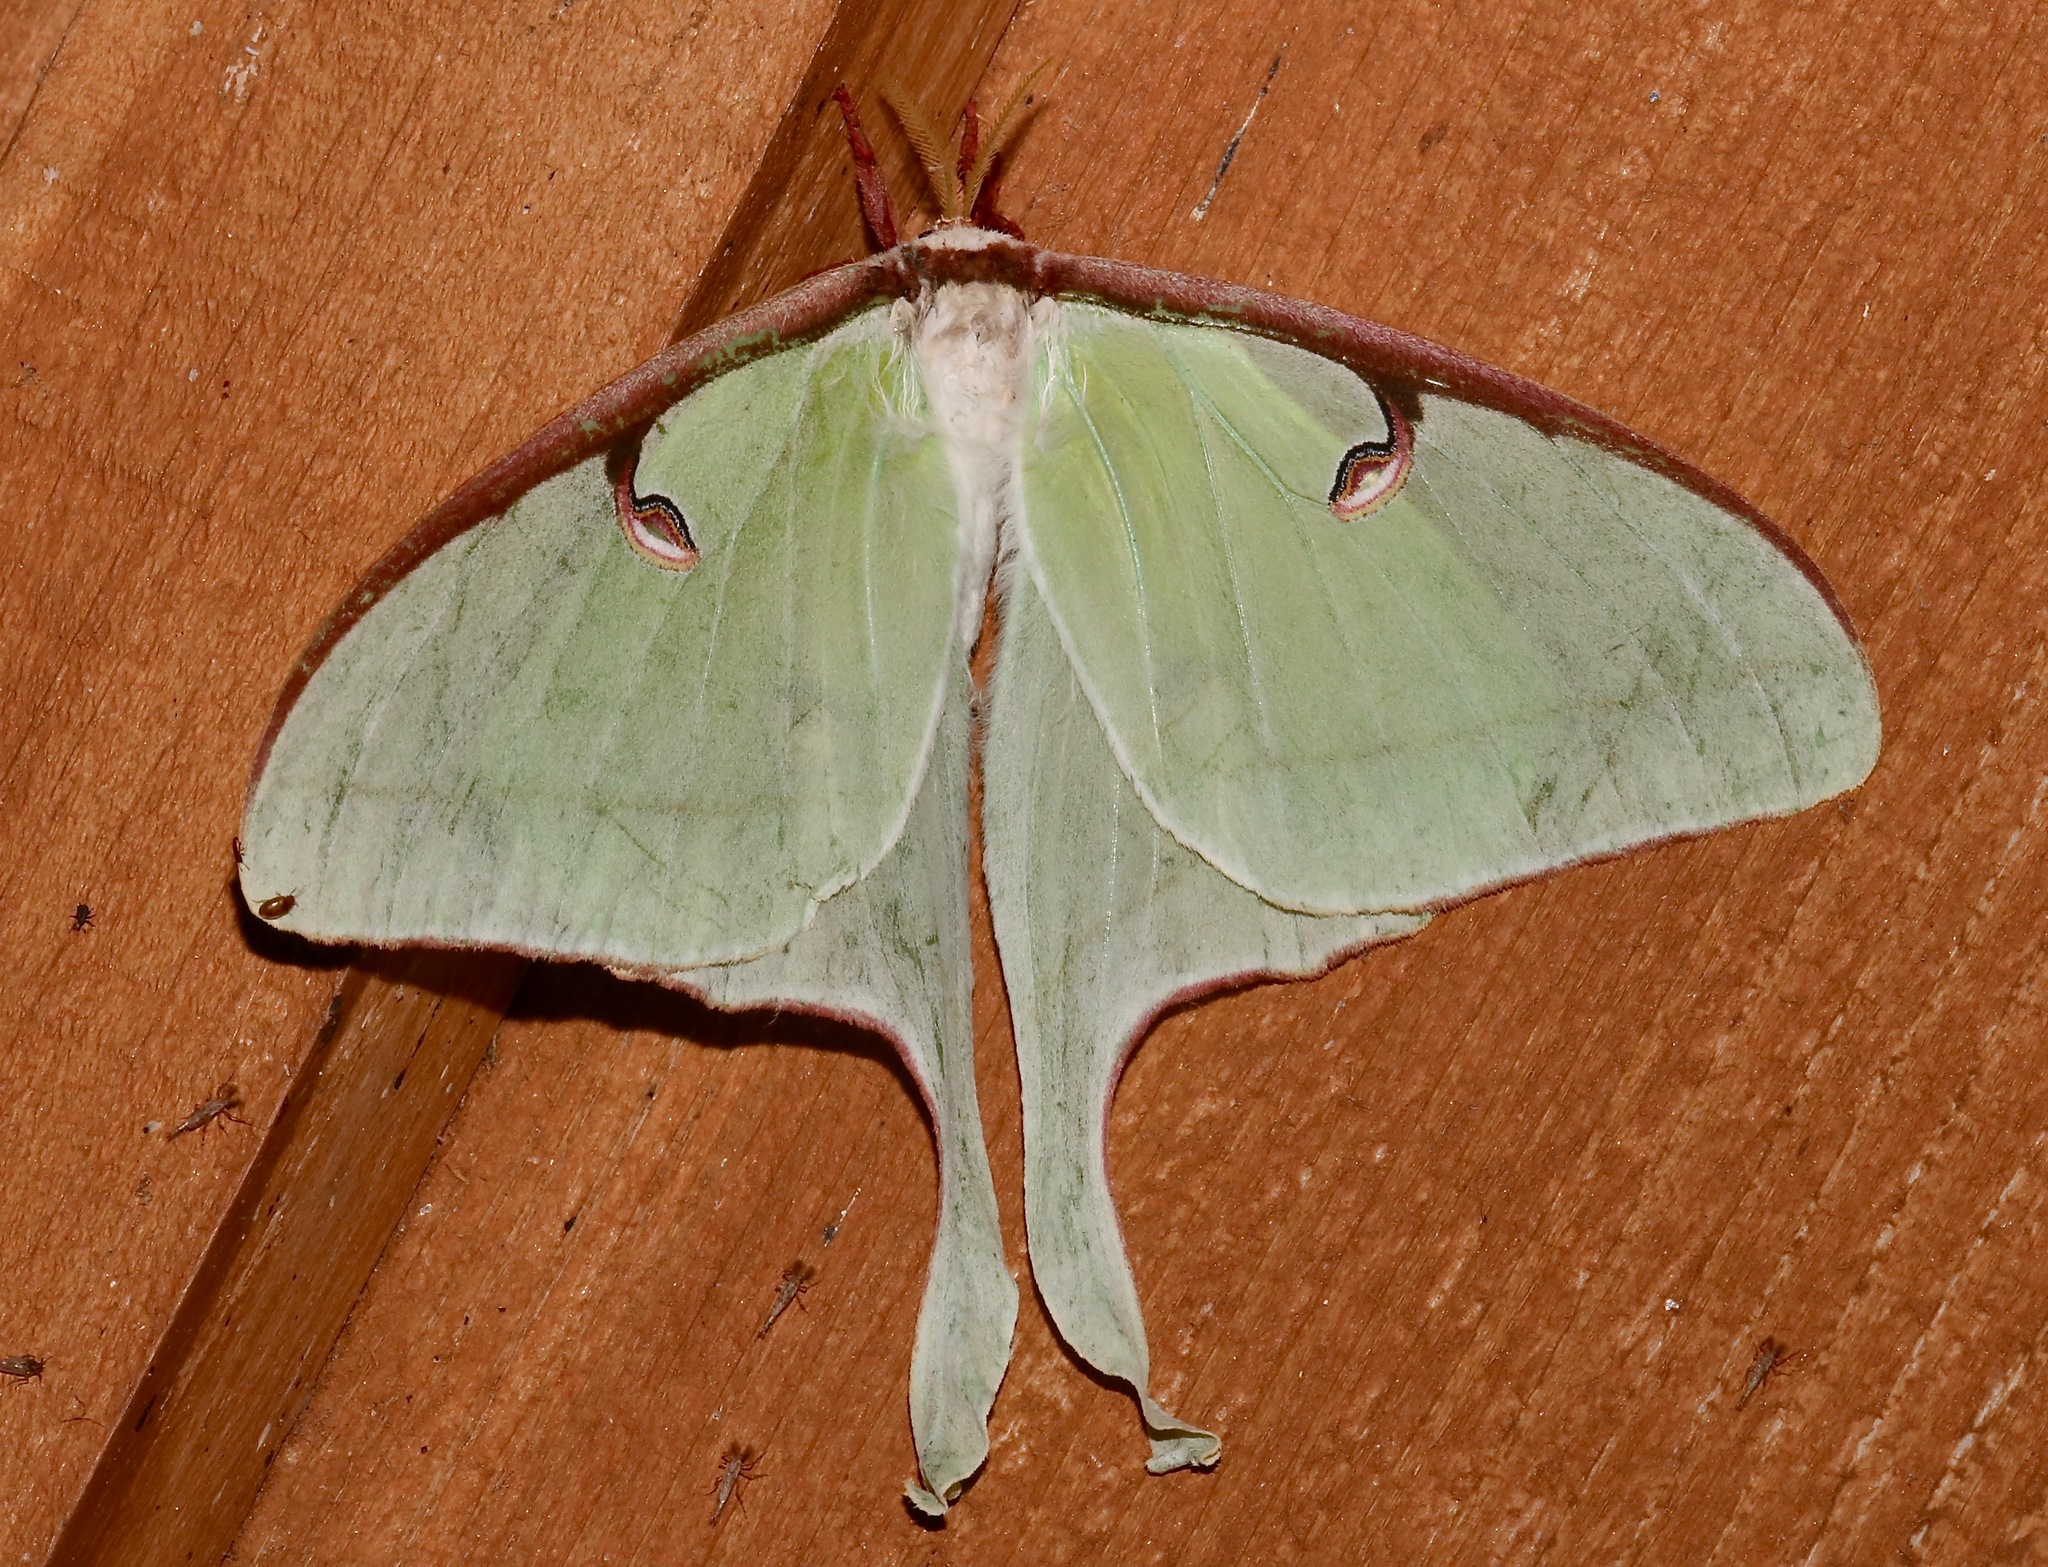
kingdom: Animalia
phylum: Arthropoda
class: Insecta
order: Lepidoptera
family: Saturniidae
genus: Actias
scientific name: Actias luna
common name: Luna moth
